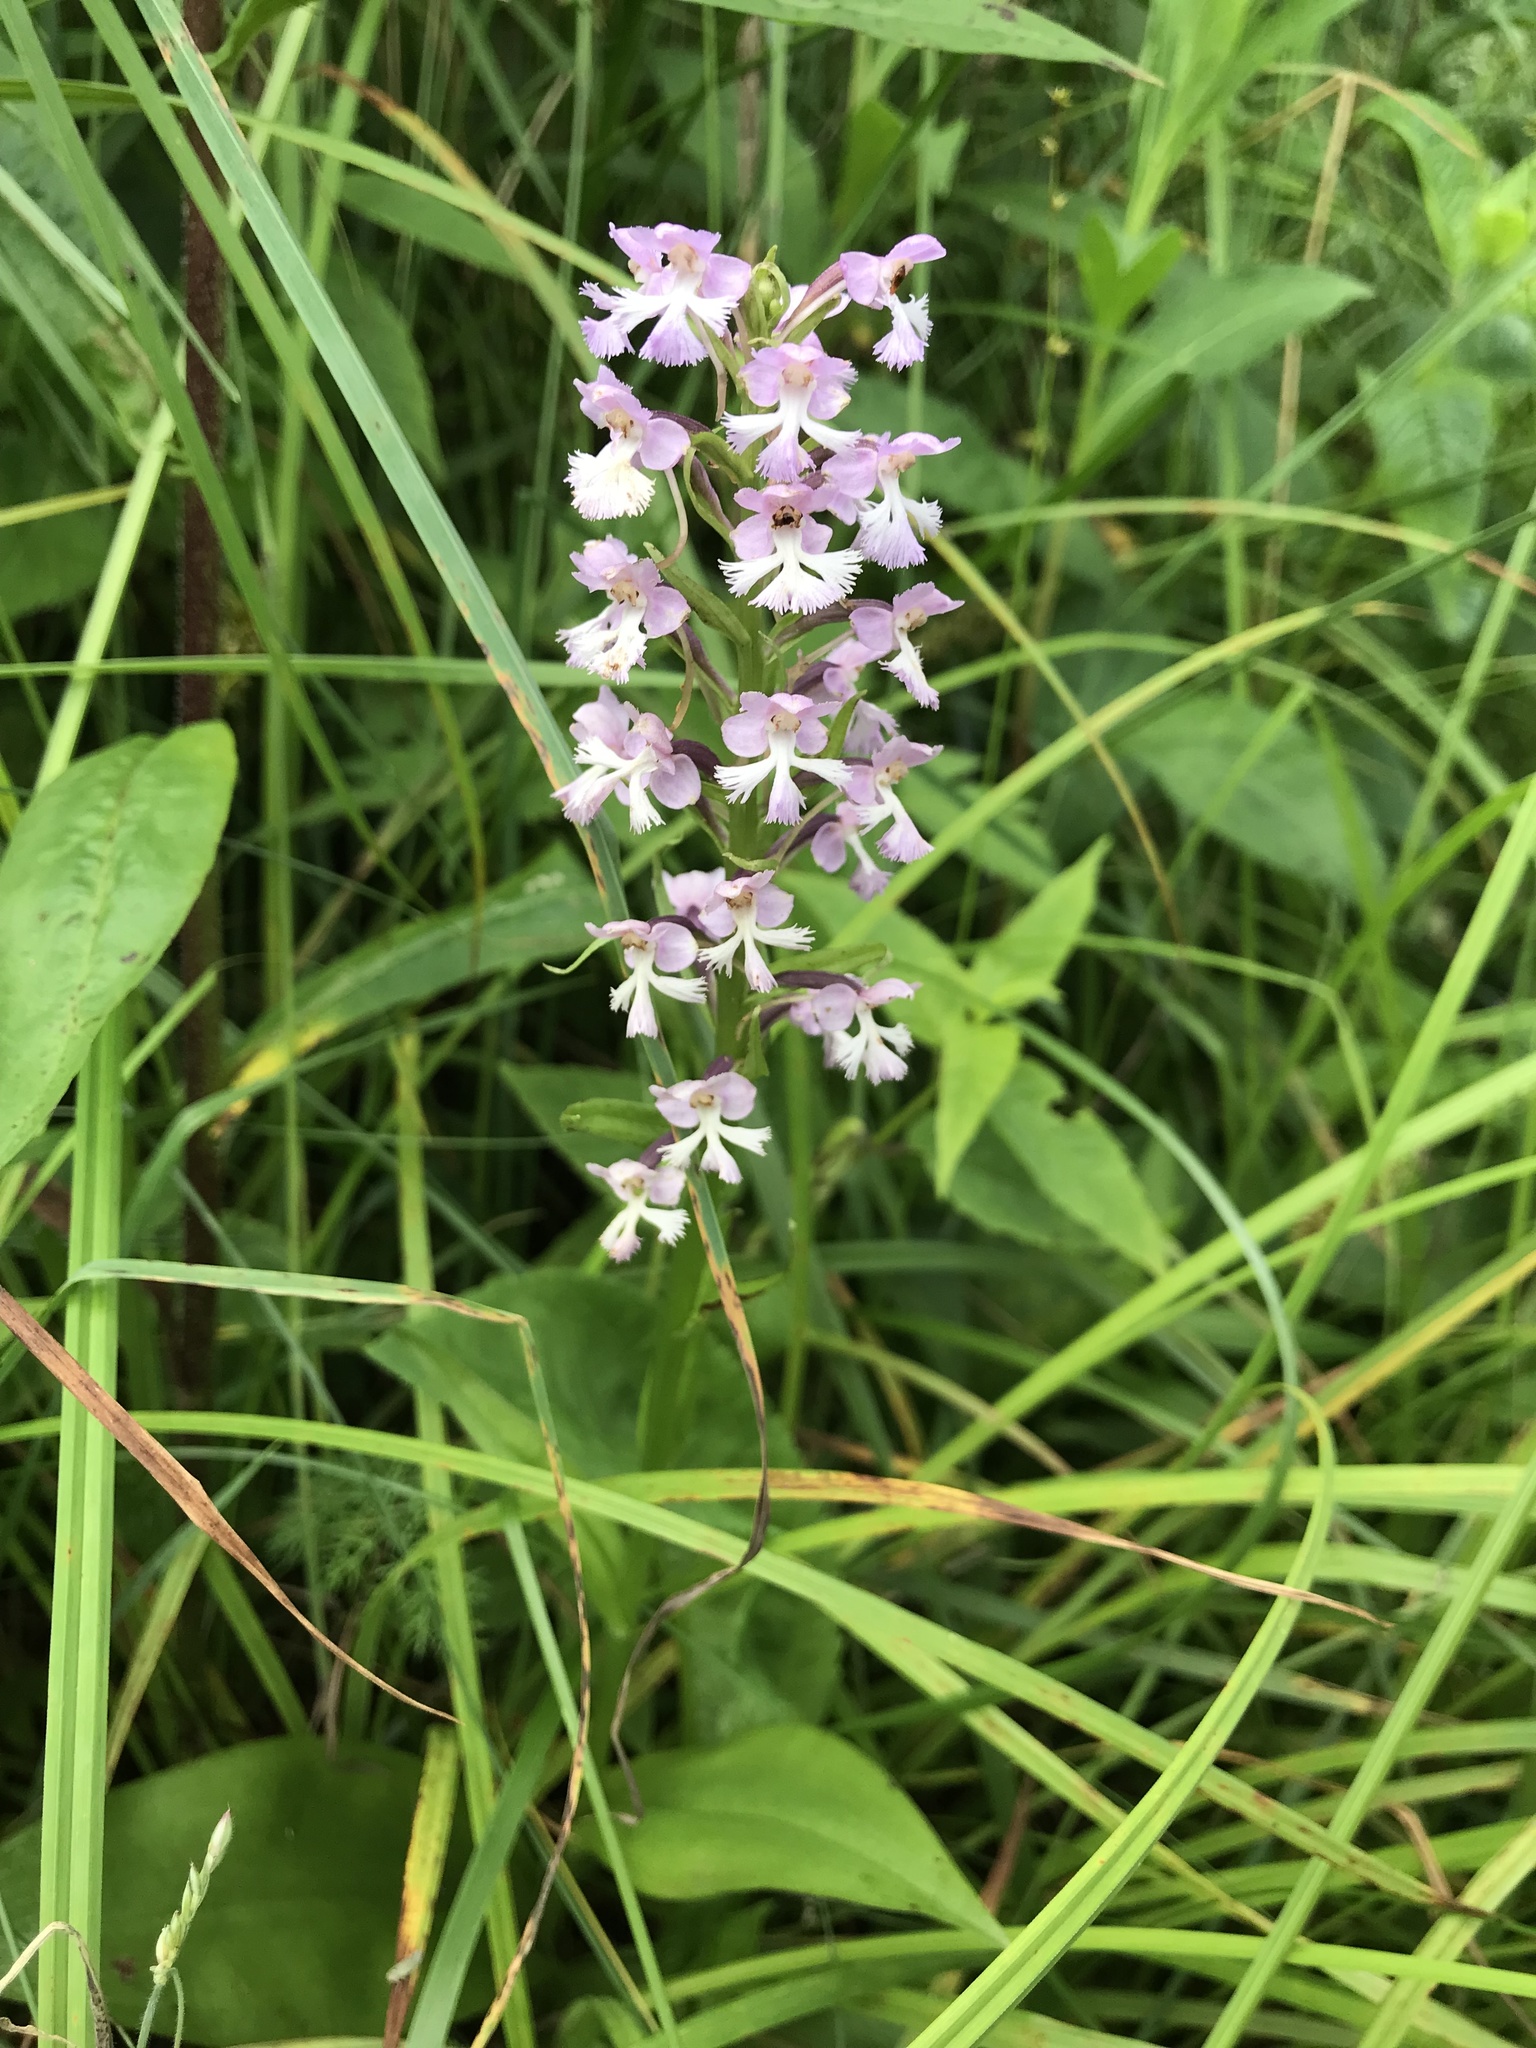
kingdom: Plantae
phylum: Tracheophyta
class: Liliopsida
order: Asparagales
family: Orchidaceae
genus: Platanthera
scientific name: Platanthera psycodes
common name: Lesser purple fringed orchid
